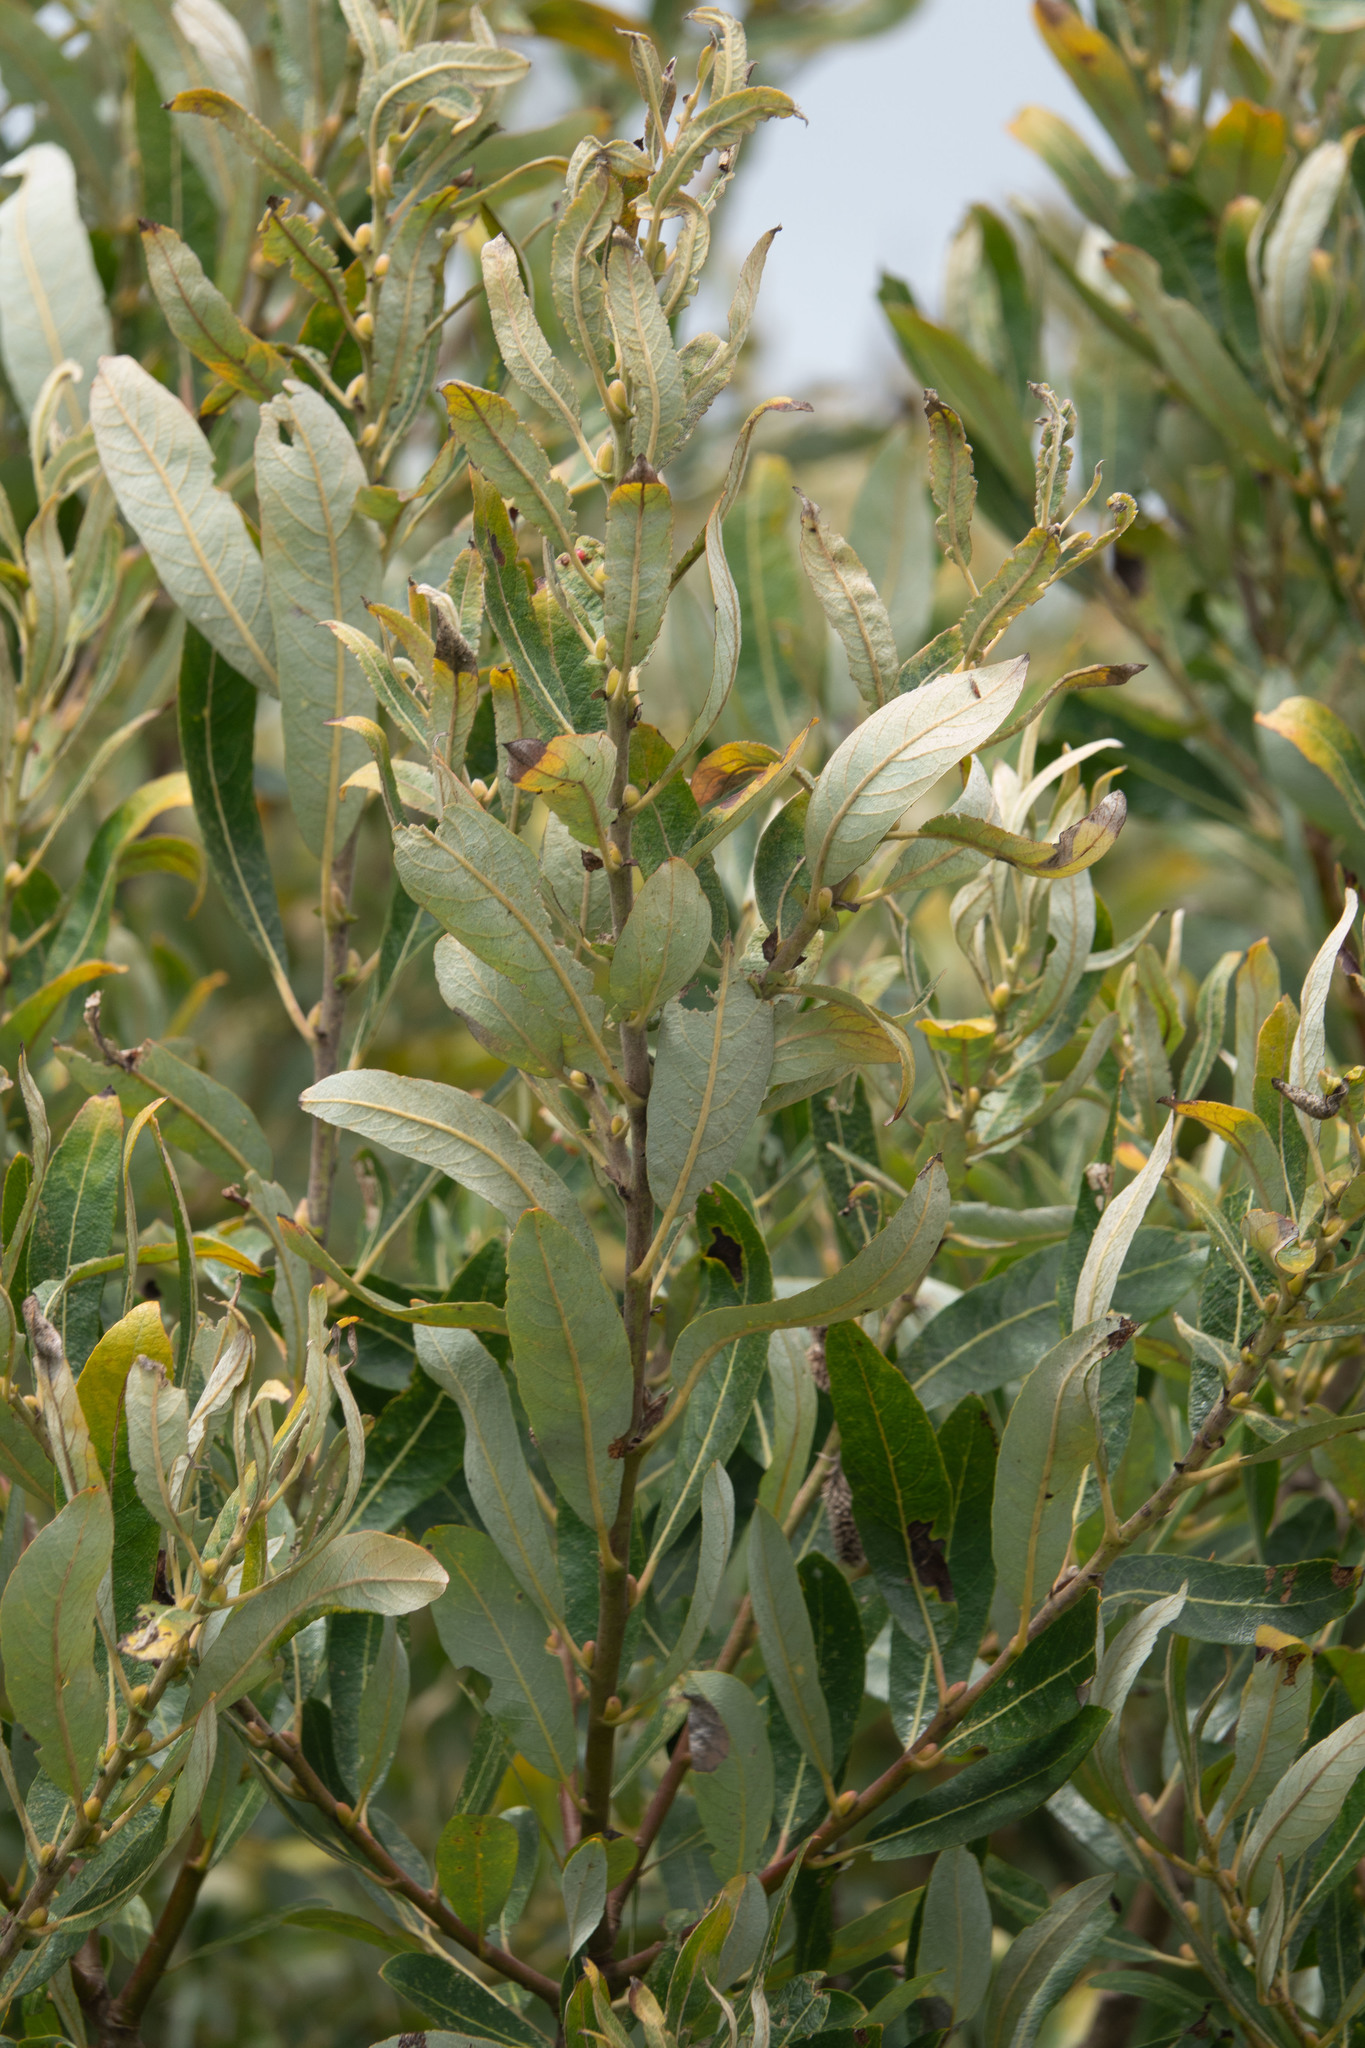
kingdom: Plantae
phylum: Tracheophyta
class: Magnoliopsida
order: Malpighiales
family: Salicaceae
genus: Salix
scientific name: Salix lasiolepis
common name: Arroyo willow
